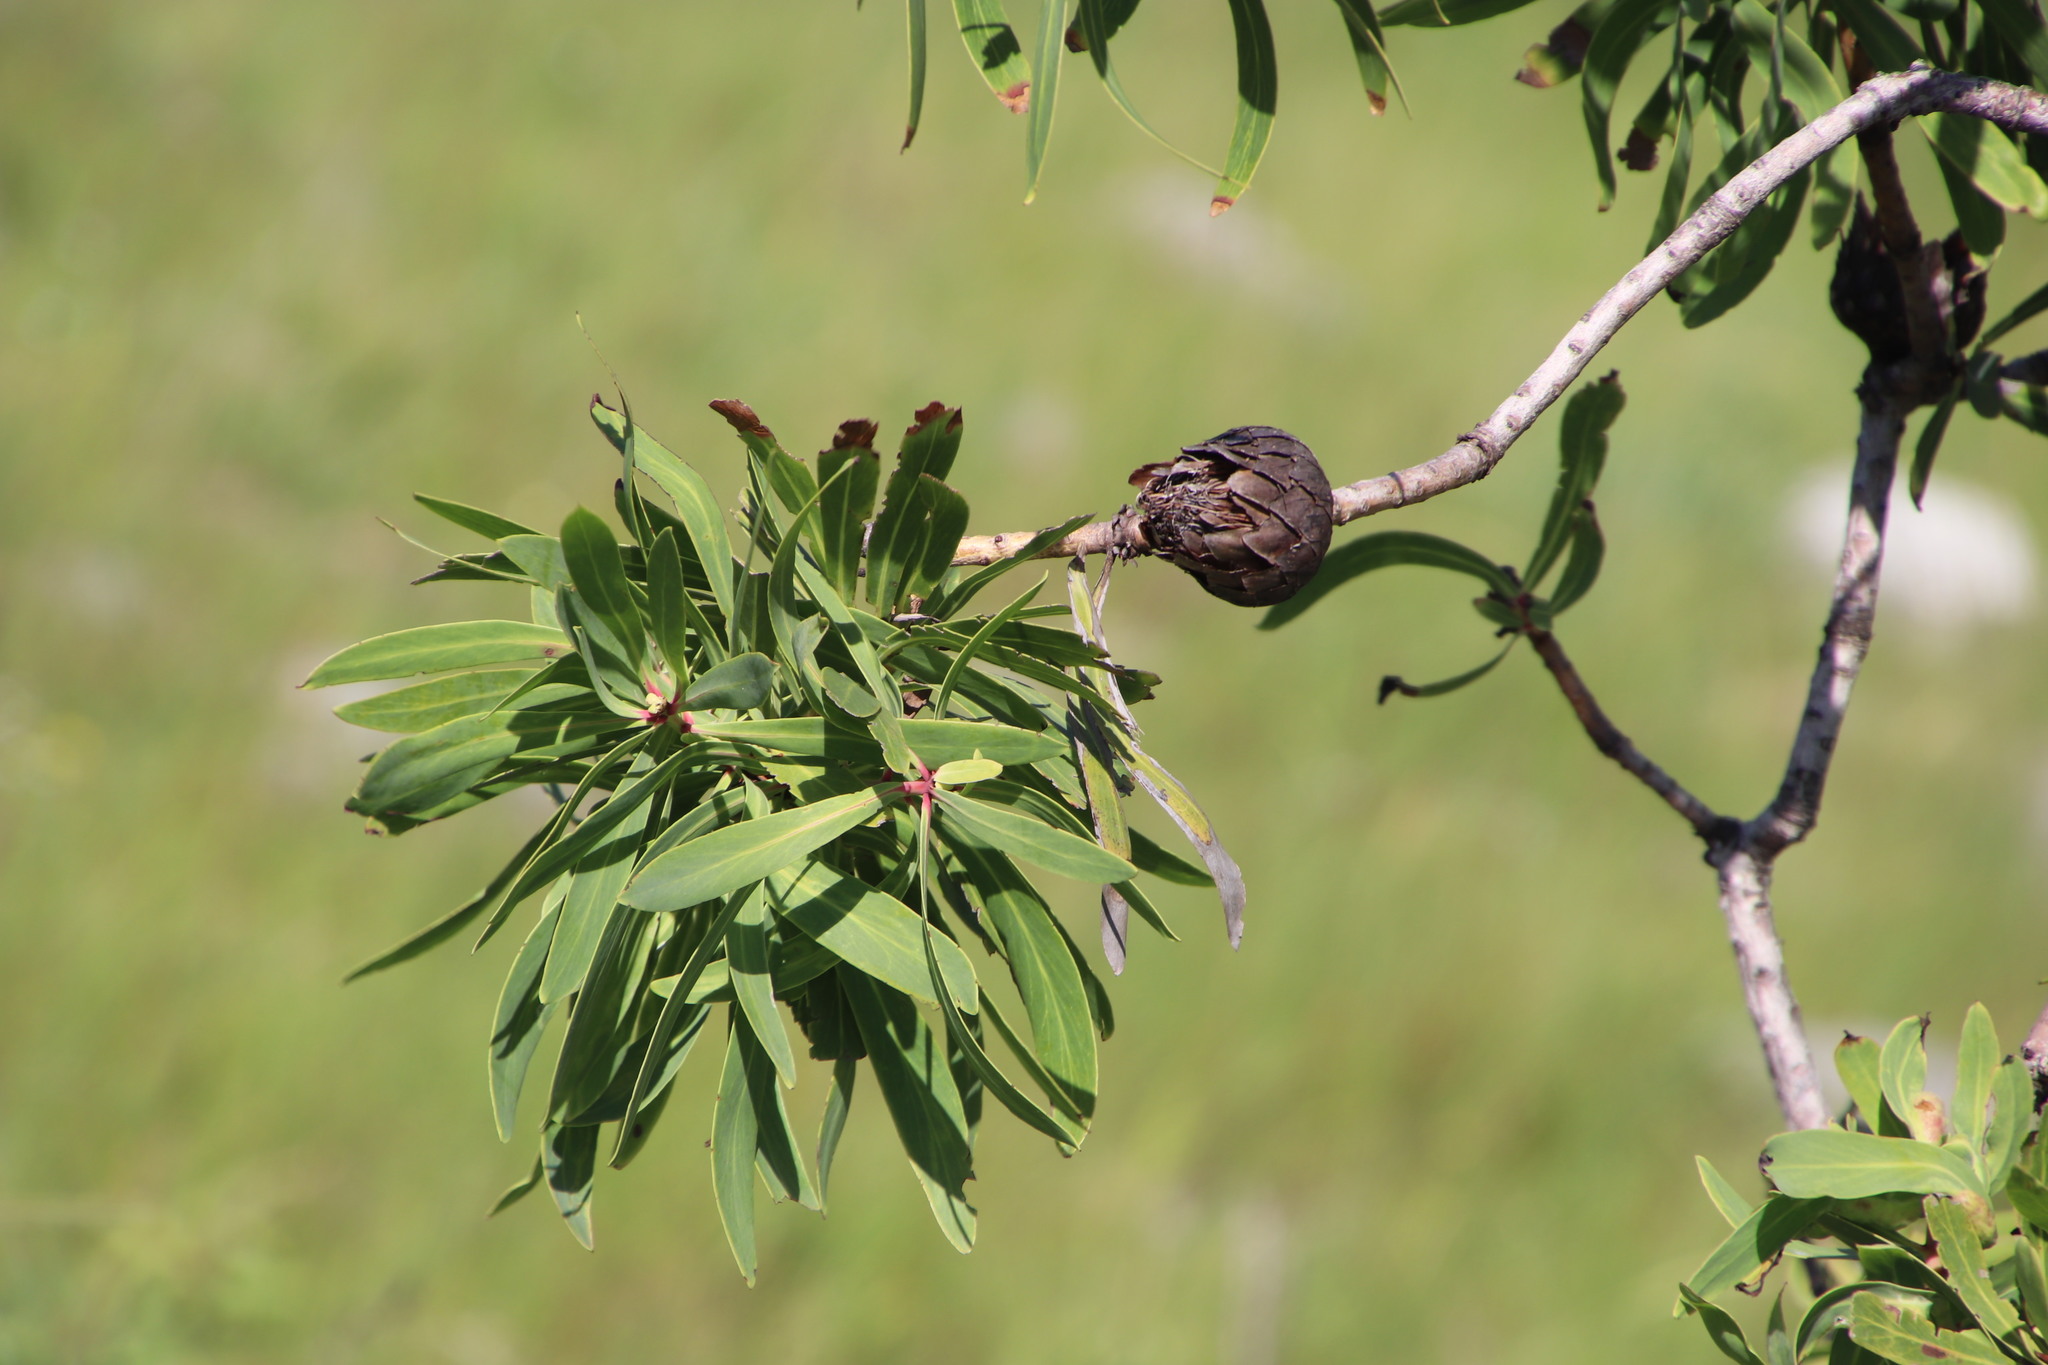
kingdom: Plantae
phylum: Tracheophyta
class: Magnoliopsida
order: Proteales
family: Proteaceae
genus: Protea
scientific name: Protea caffra
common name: Common sugarbush
